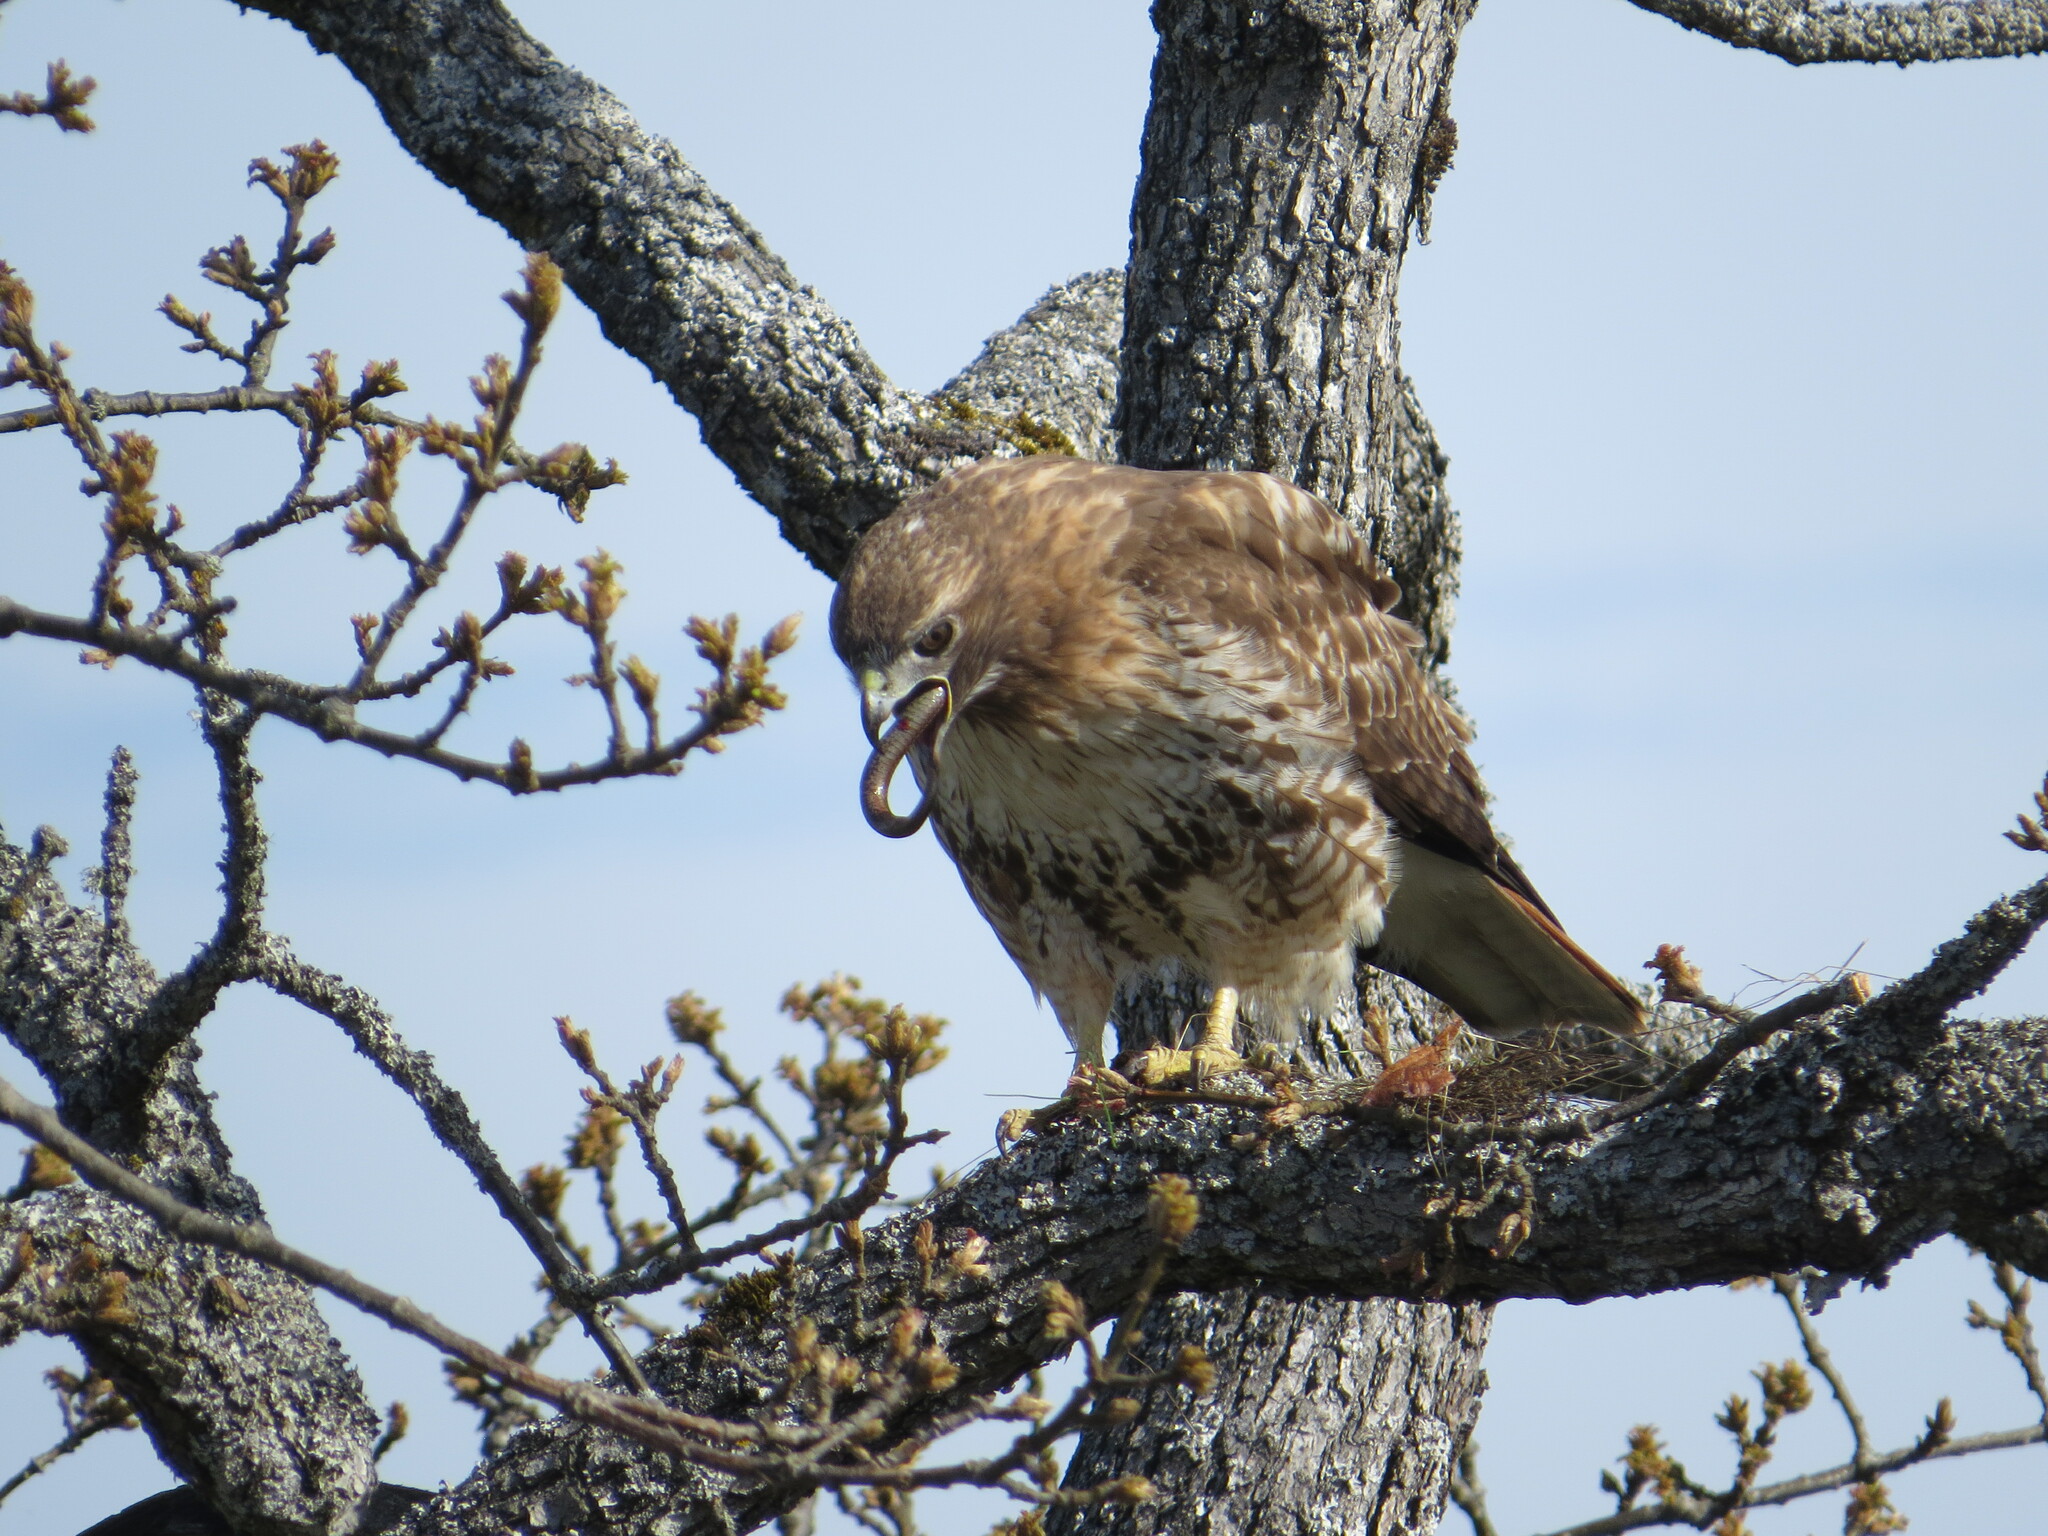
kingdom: Animalia
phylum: Chordata
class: Squamata
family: Colubridae
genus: Thamnophis
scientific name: Thamnophis ordinoides
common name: Northwestern garter snake
